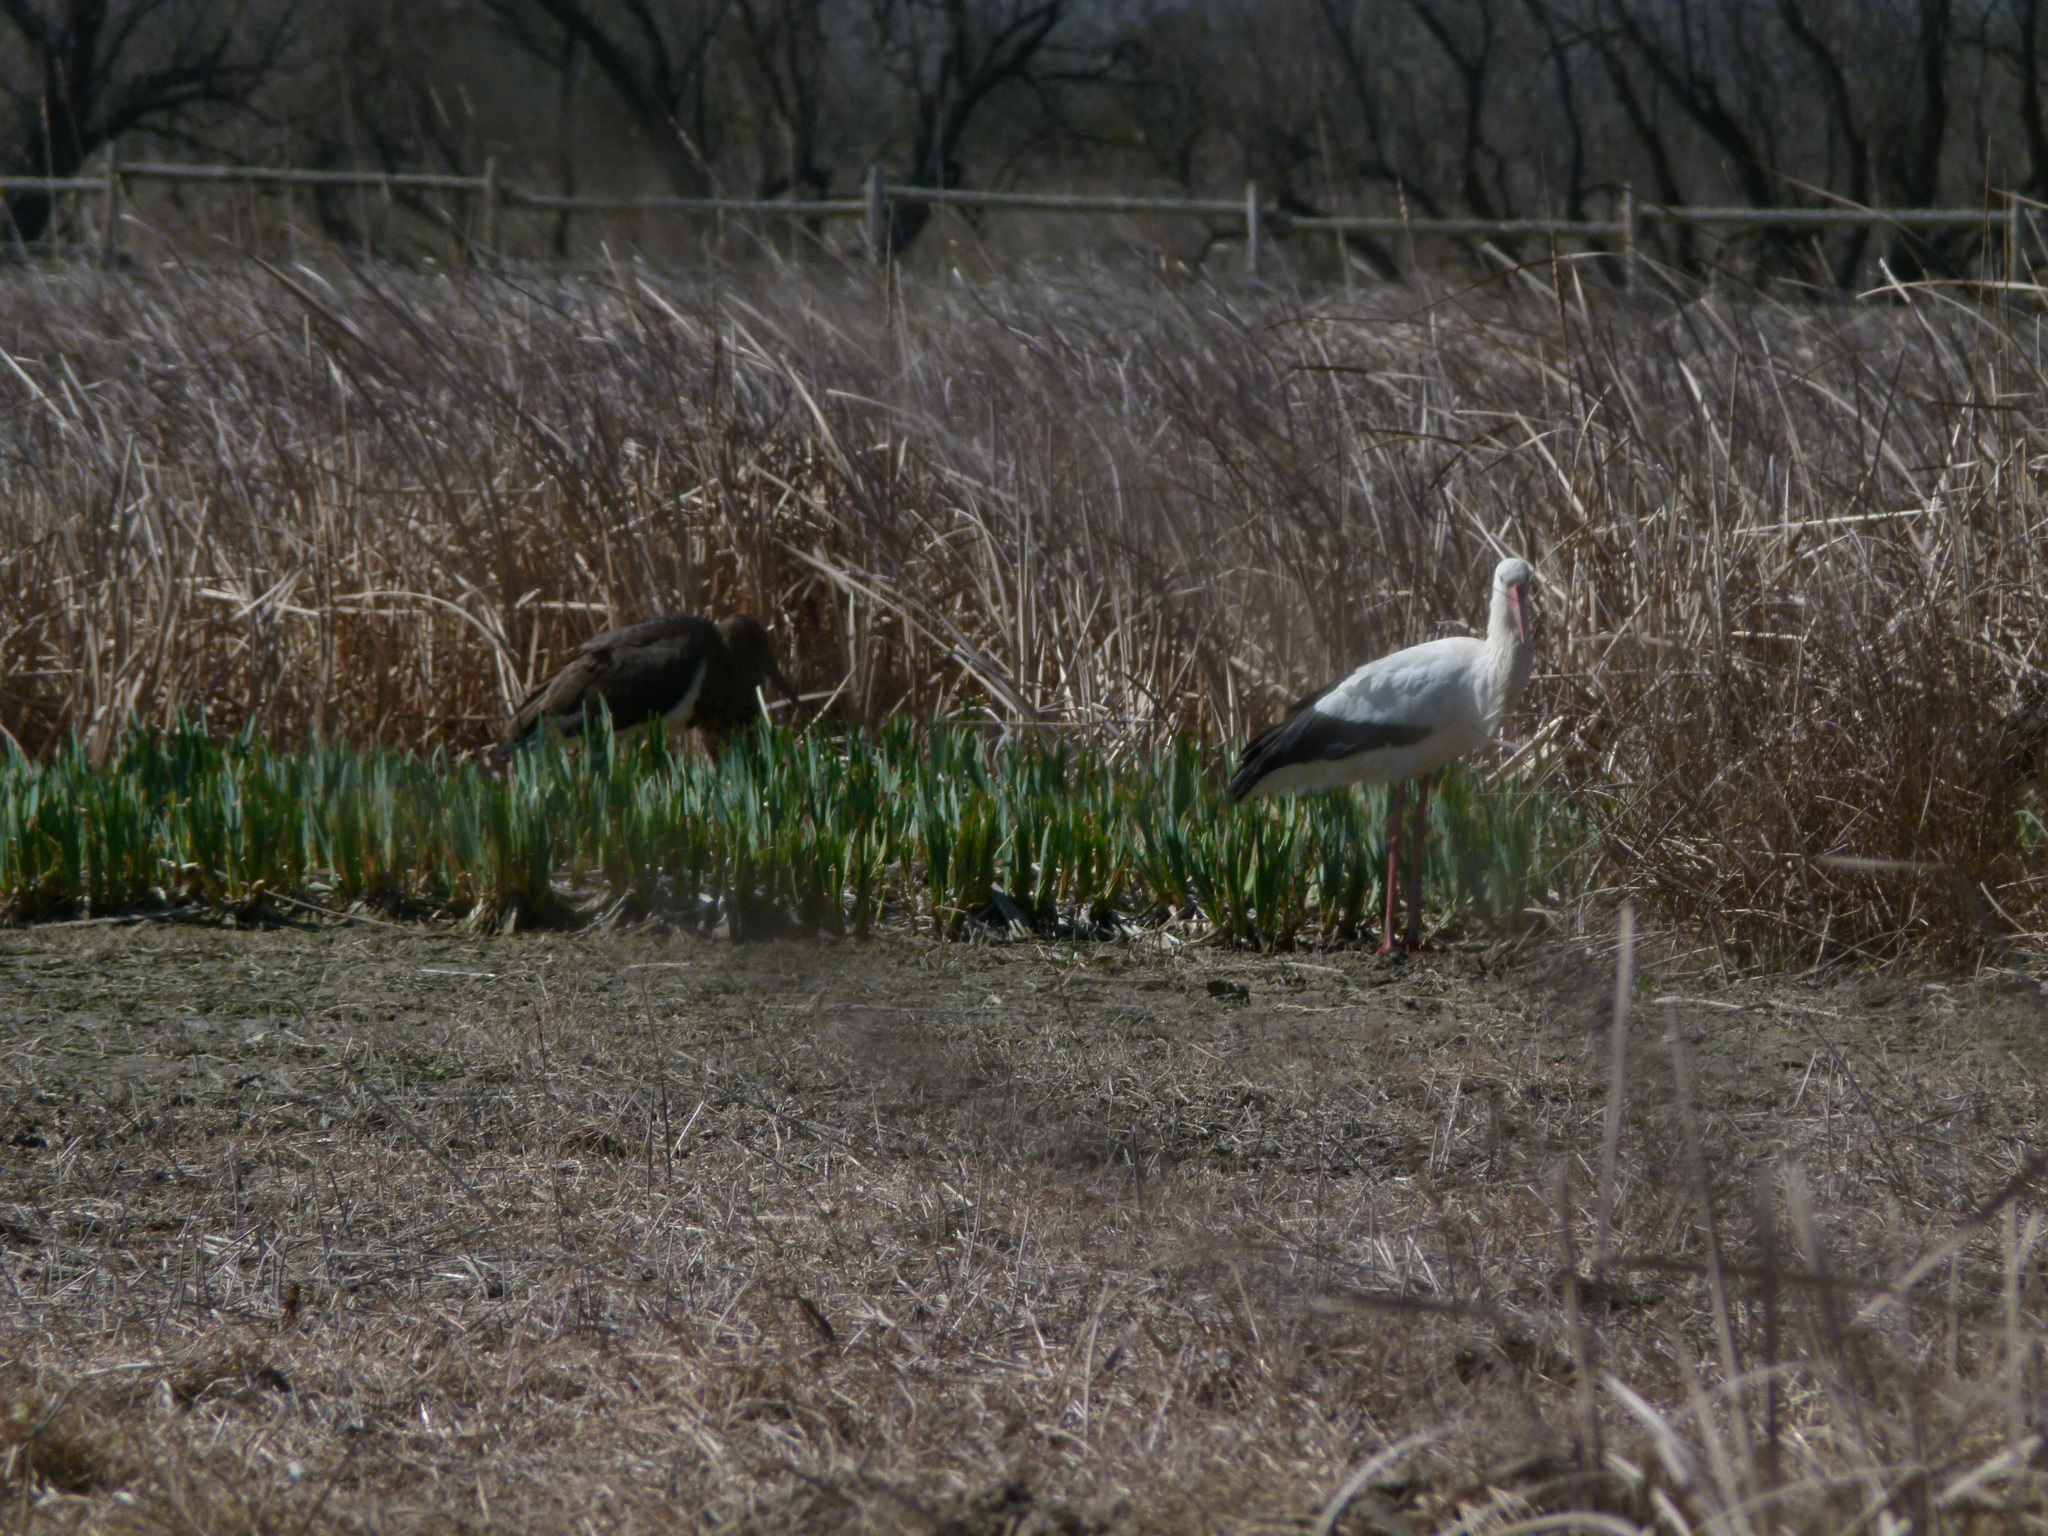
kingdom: Animalia
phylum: Chordata
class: Aves
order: Ciconiiformes
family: Ciconiidae
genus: Ciconia
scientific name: Ciconia nigra
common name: Black stork
